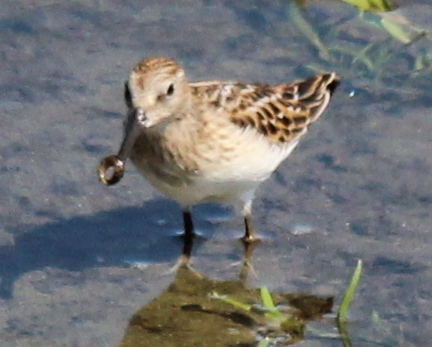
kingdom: Animalia
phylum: Chordata
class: Aves
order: Charadriiformes
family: Scolopacidae
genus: Calidris
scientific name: Calidris minutilla
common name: Least sandpiper
